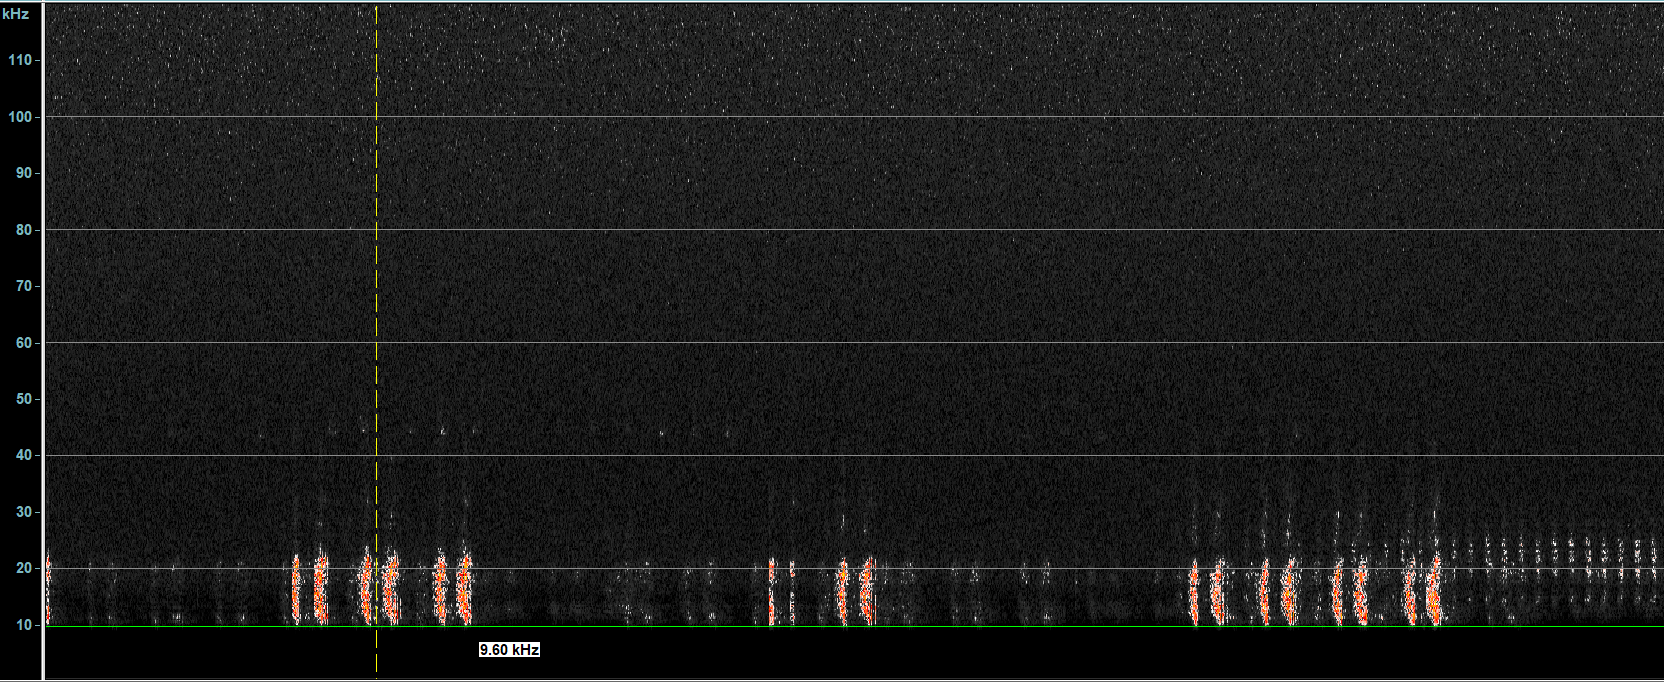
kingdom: Animalia
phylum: Arthropoda
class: Insecta
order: Orthoptera
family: Tettigoniidae
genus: Tettigonia
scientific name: Tettigonia viridissima
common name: Great green bush-cricket
